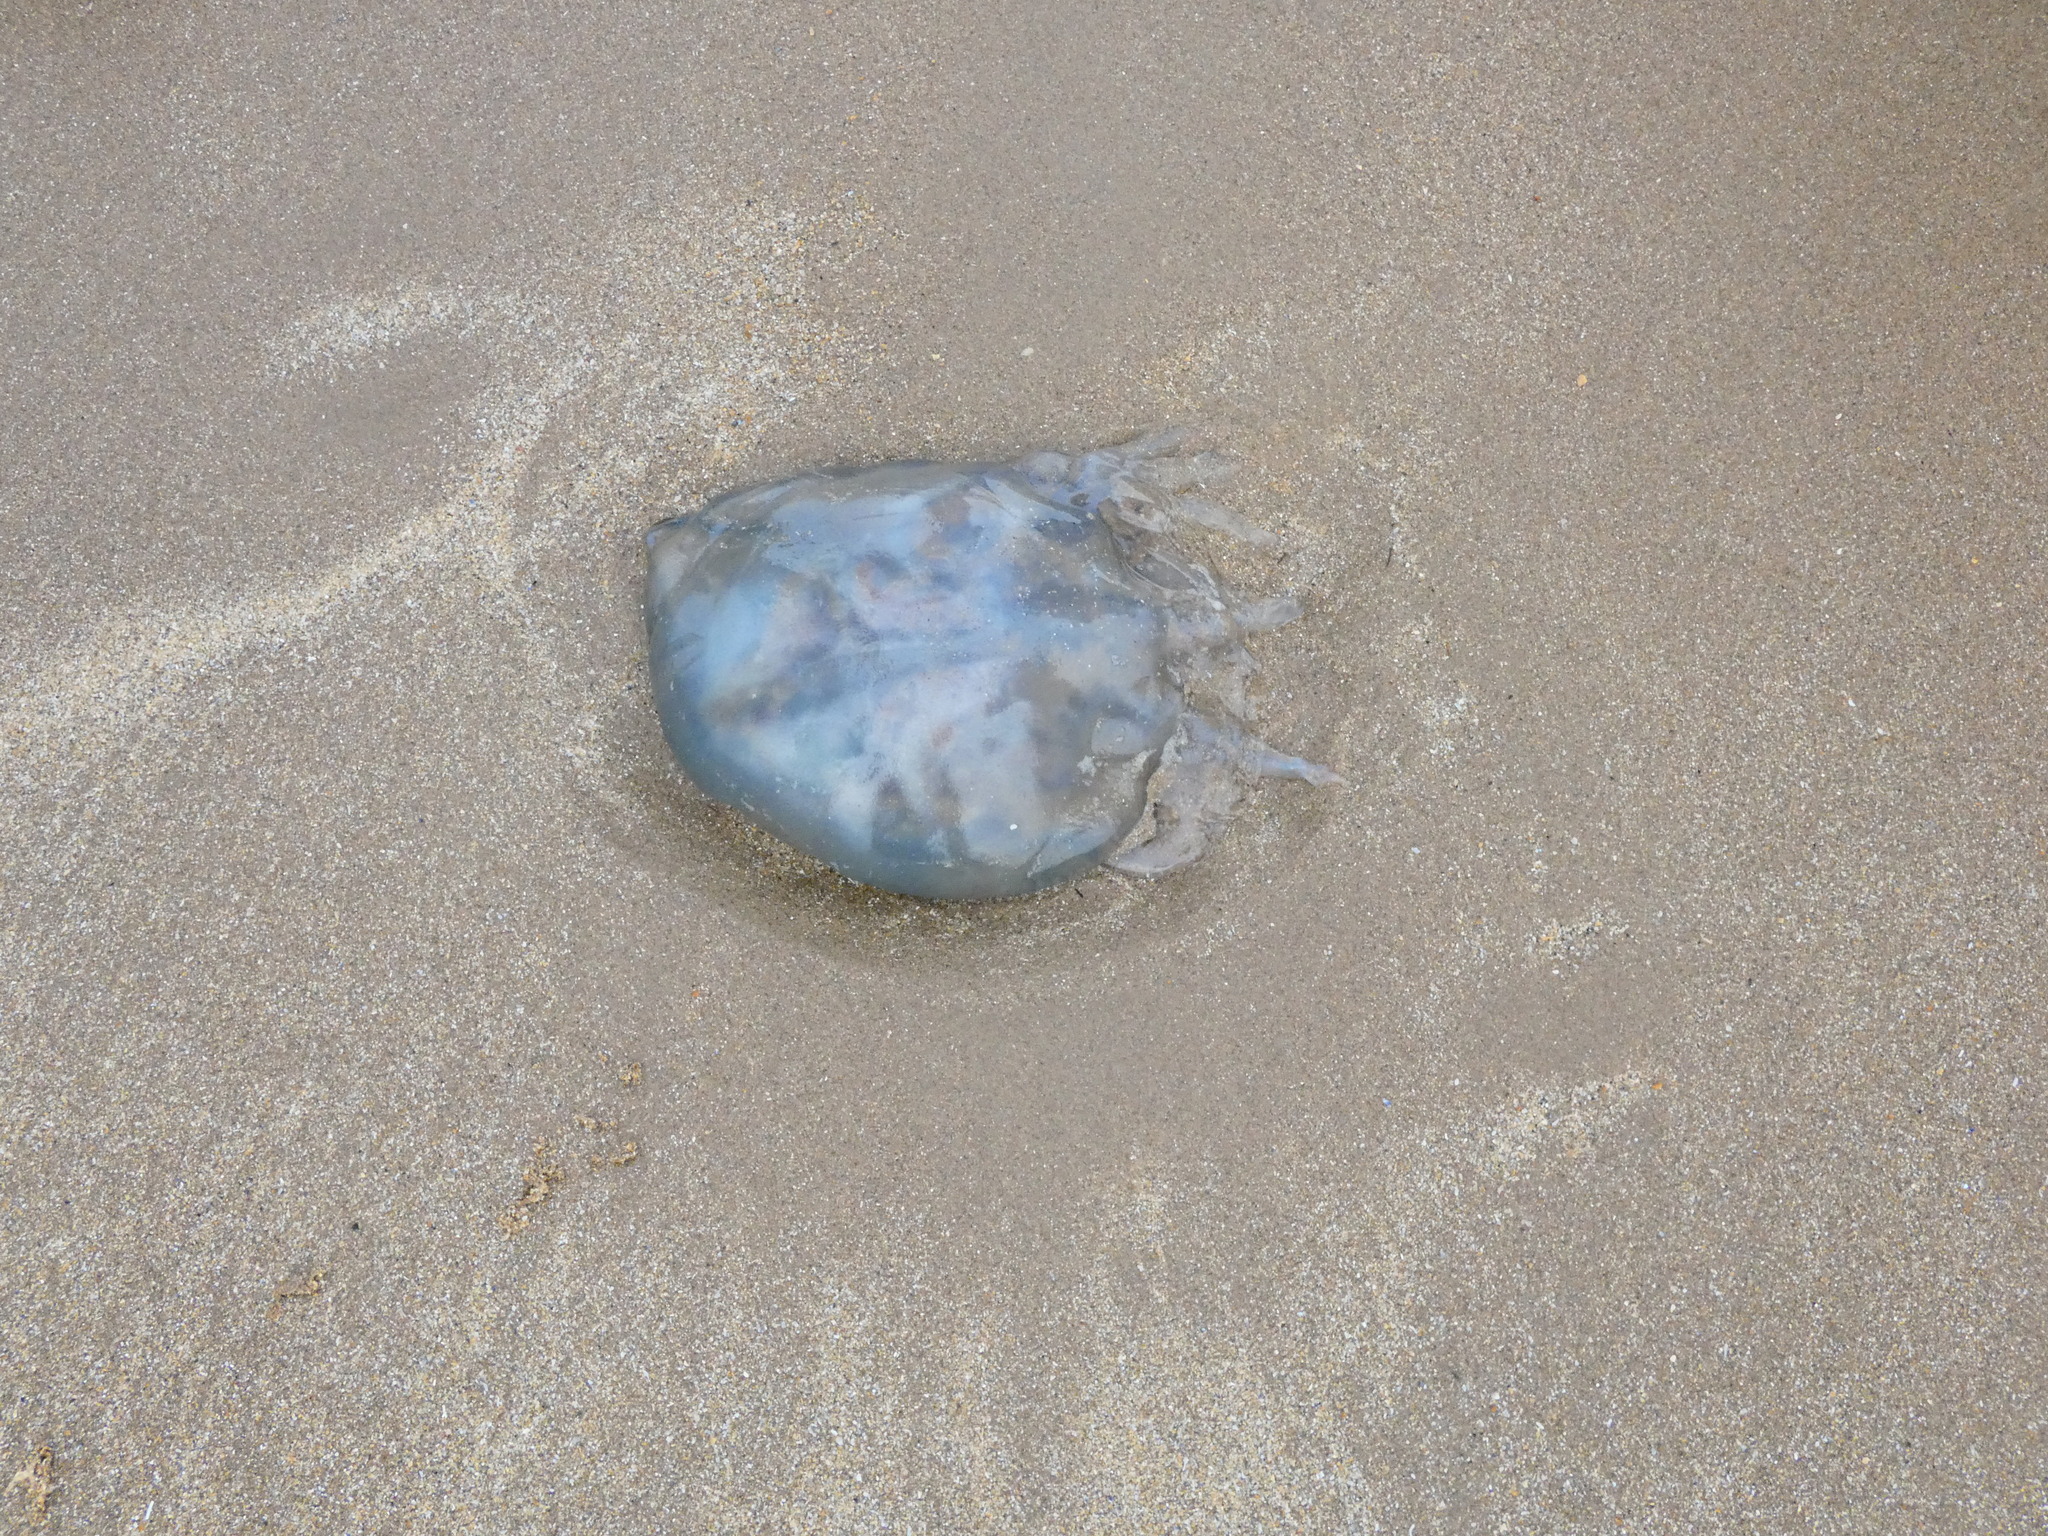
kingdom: Animalia
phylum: Cnidaria
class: Scyphozoa
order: Rhizostomeae
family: Rhizostomatidae
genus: Rhizostoma
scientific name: Rhizostoma octopus
